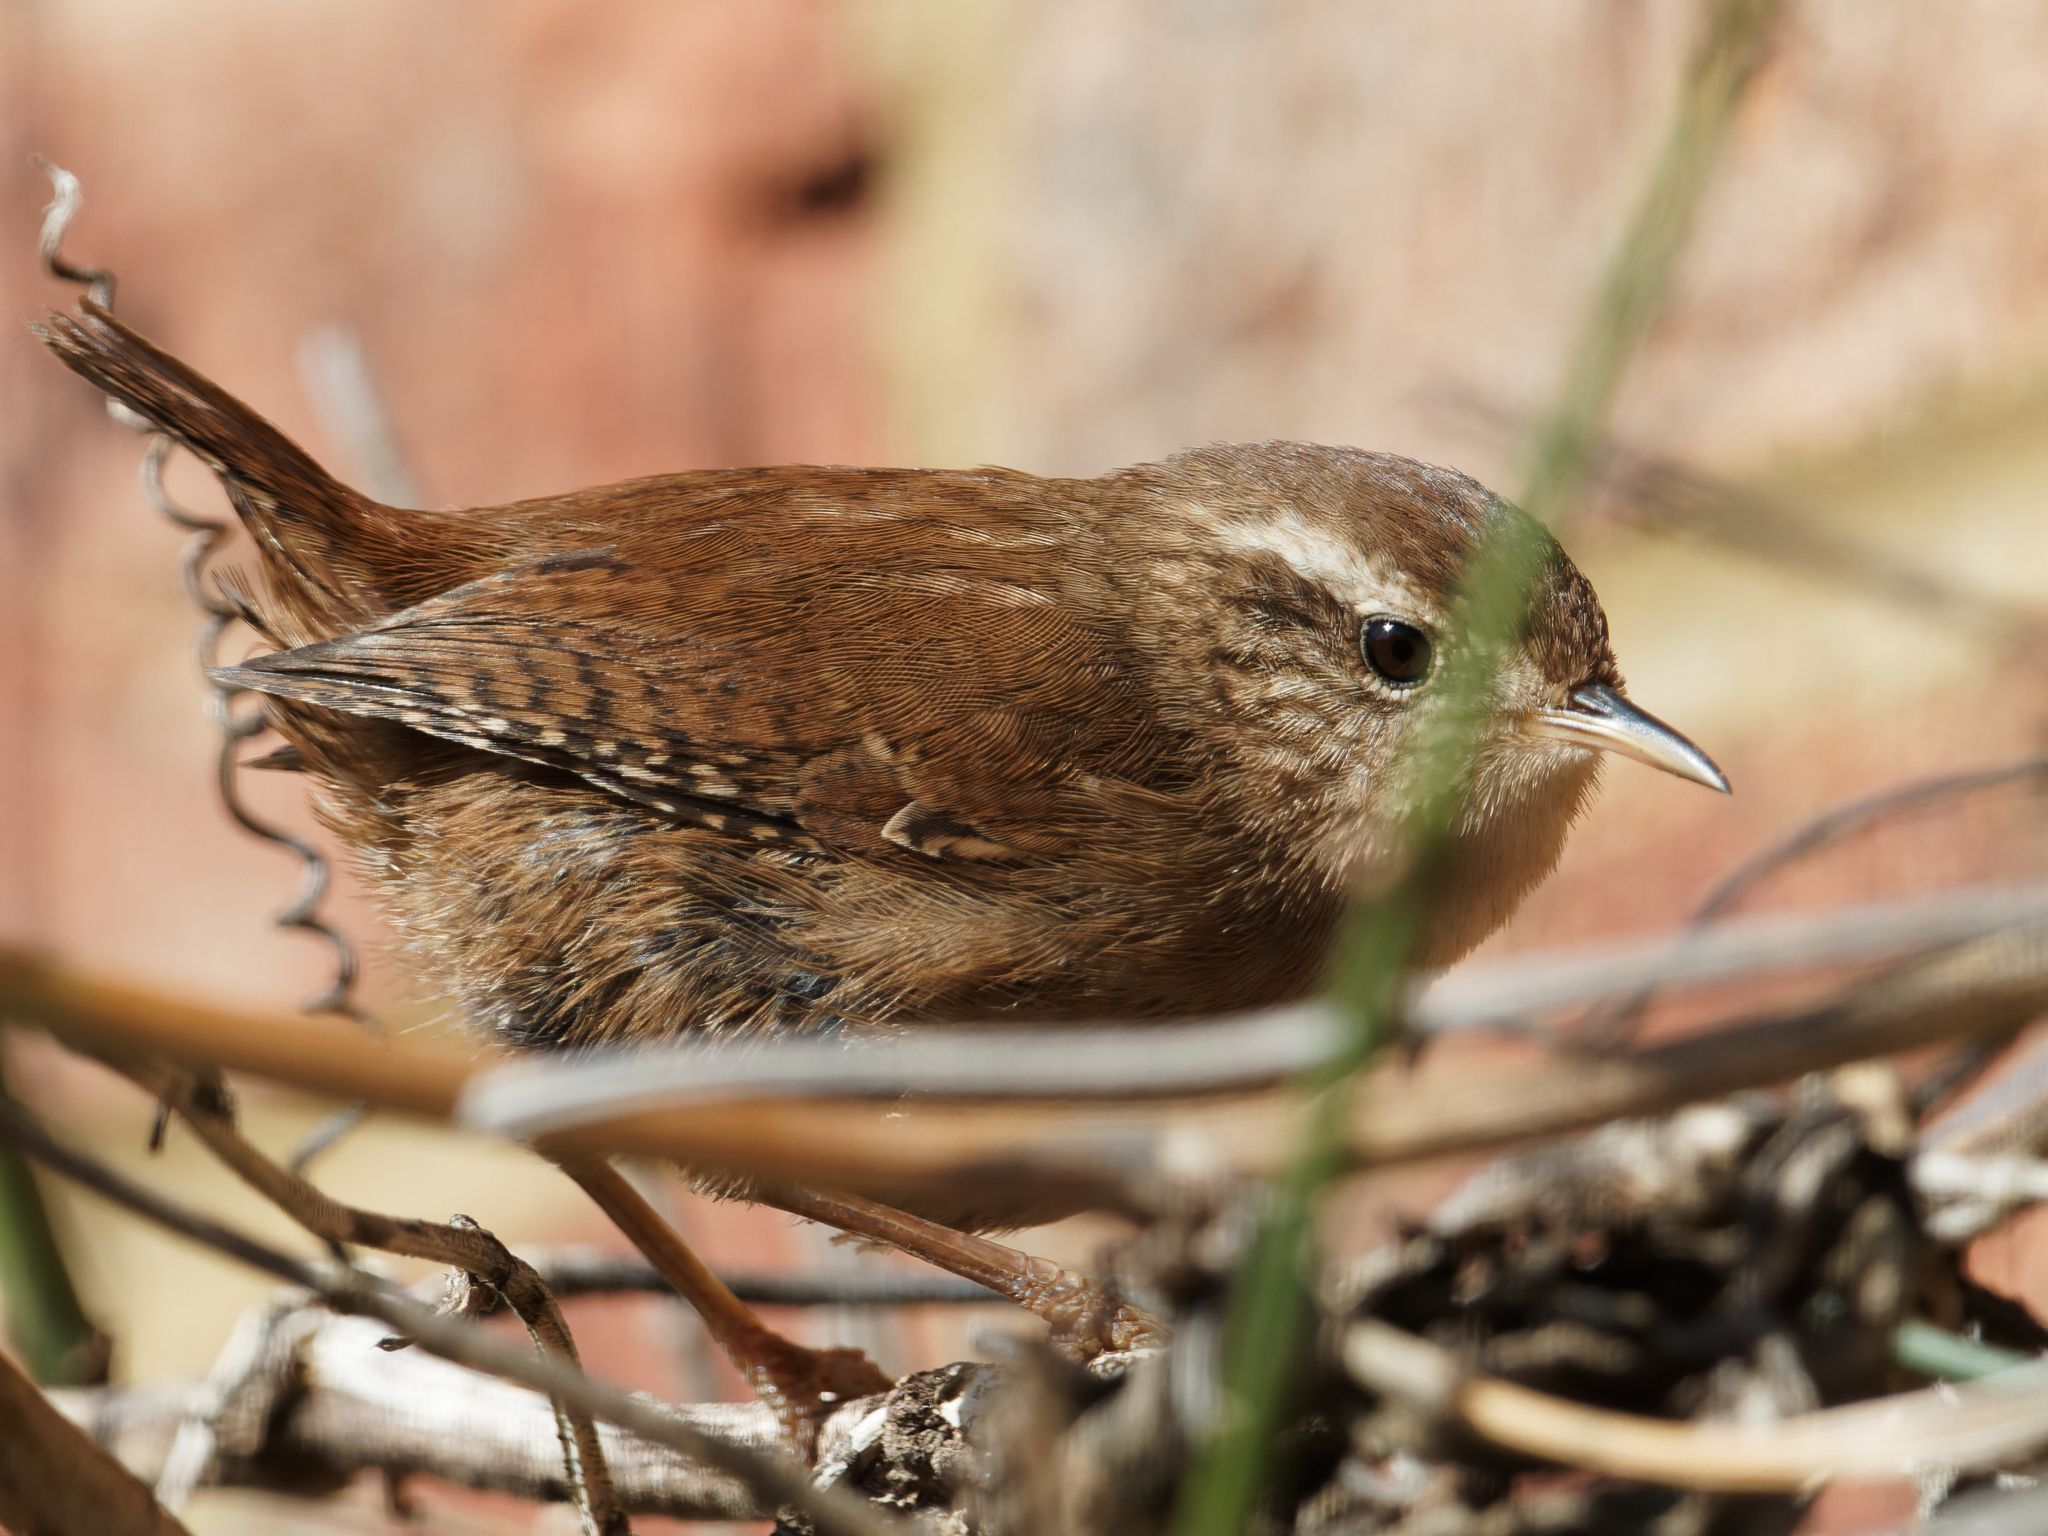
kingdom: Animalia
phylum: Chordata
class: Aves
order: Passeriformes
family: Troglodytidae
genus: Troglodytes
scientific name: Troglodytes troglodytes
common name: Eurasian wren
